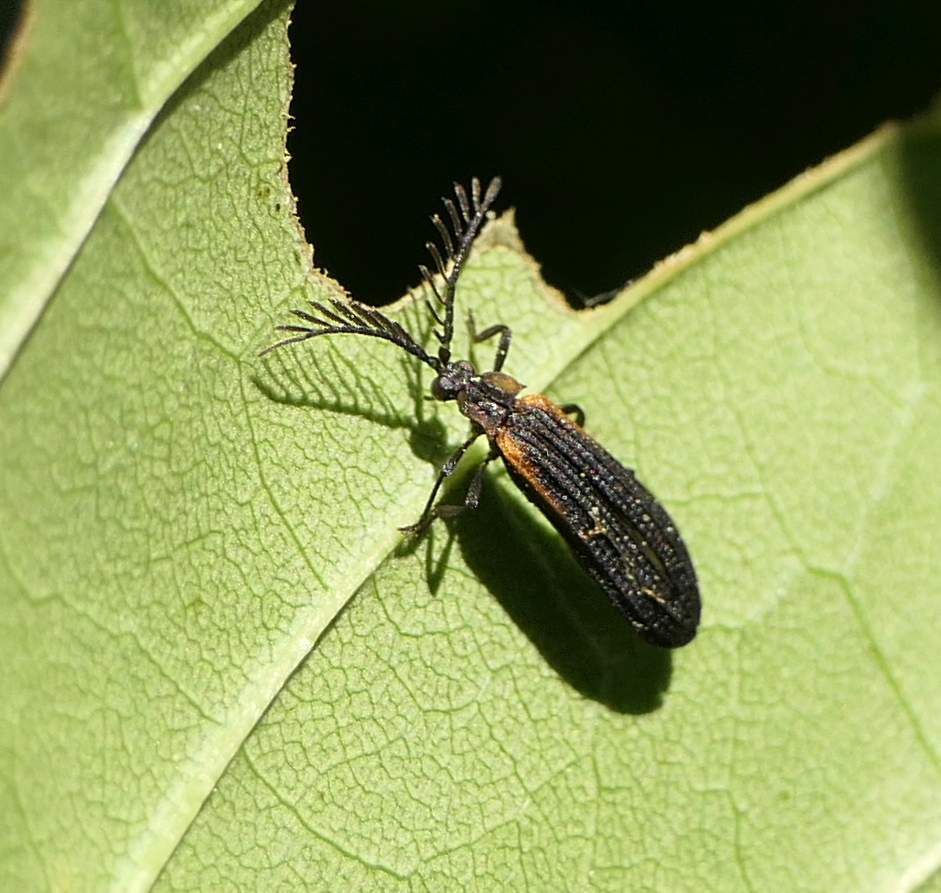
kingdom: Animalia
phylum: Arthropoda
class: Insecta
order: Coleoptera
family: Lycidae
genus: Leptoceletes
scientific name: Leptoceletes basalis
